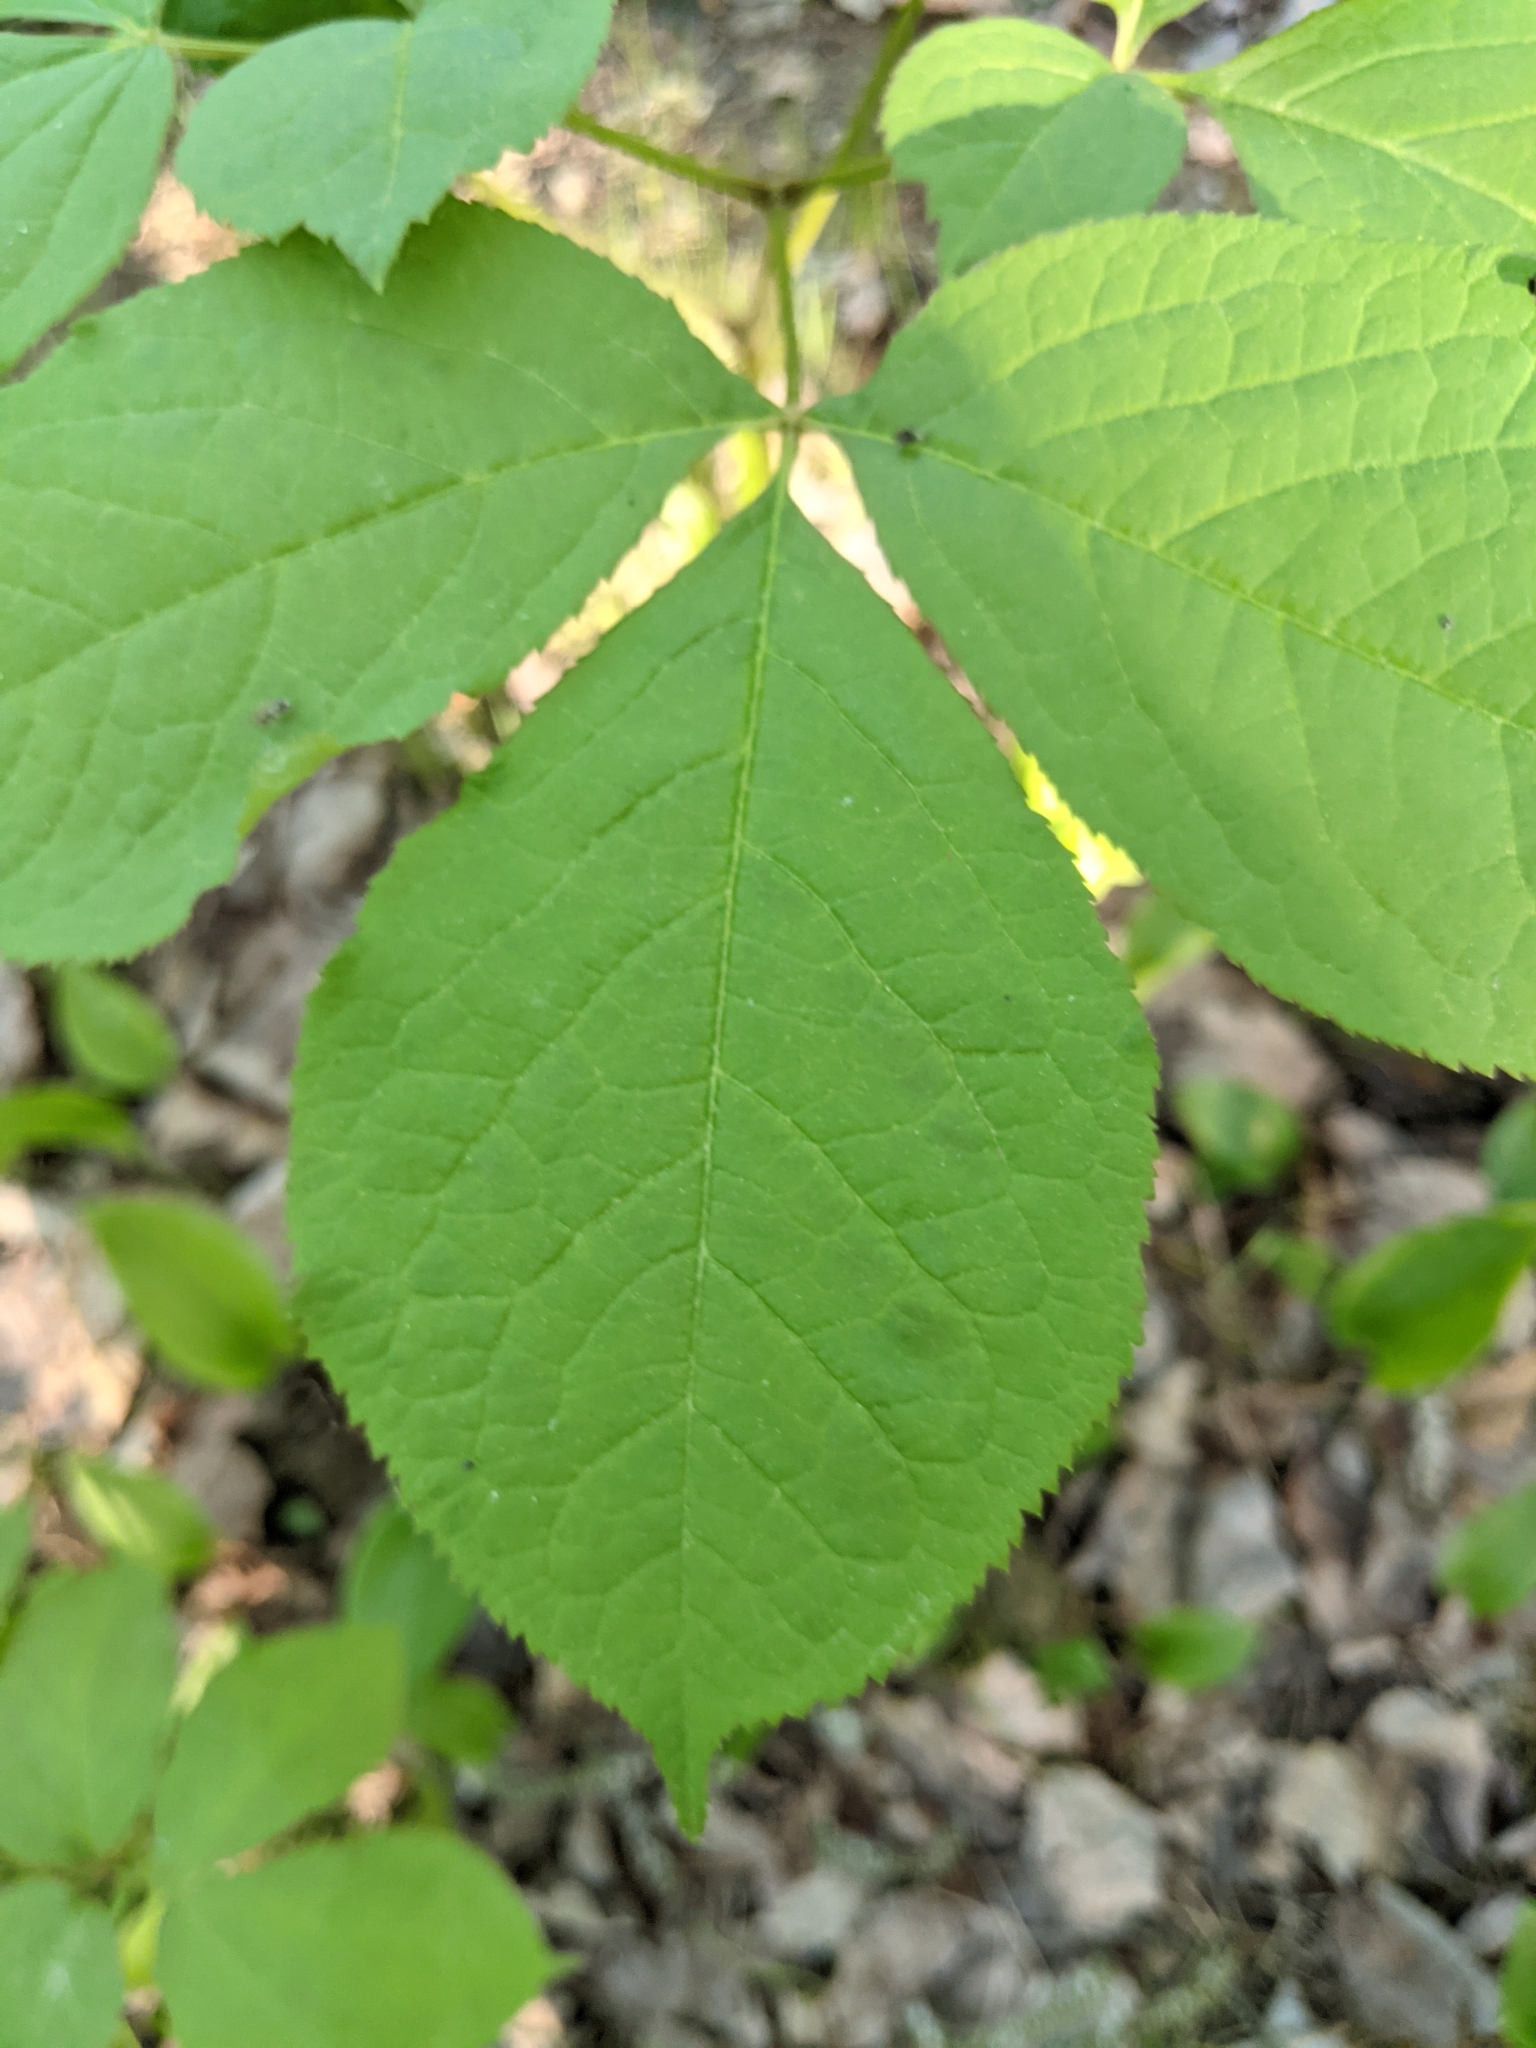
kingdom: Plantae
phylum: Tracheophyta
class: Magnoliopsida
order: Apiales
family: Araliaceae
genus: Aralia
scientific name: Aralia nudicaulis
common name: Wild sarsaparilla
